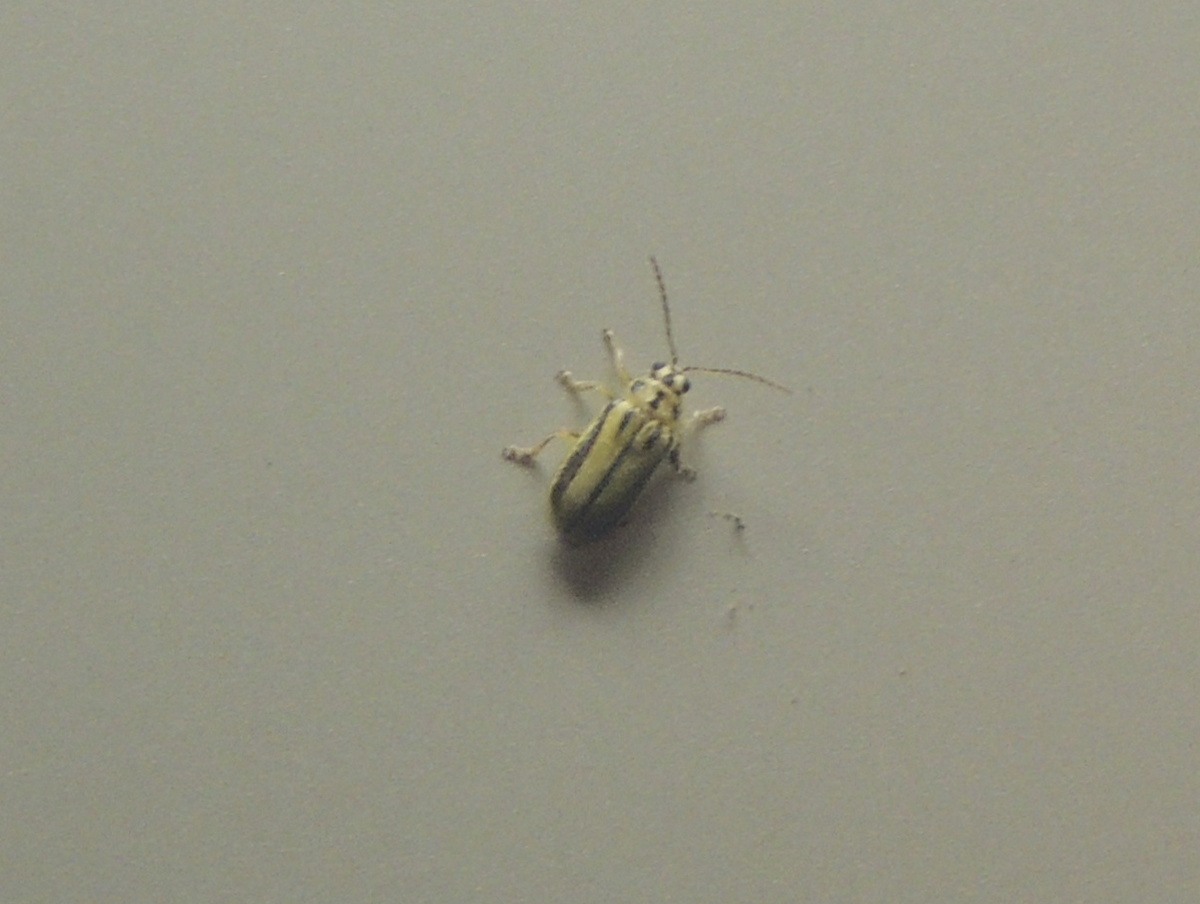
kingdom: Animalia
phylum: Arthropoda
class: Insecta
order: Coleoptera
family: Chrysomelidae
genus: Xanthogaleruca
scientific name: Xanthogaleruca luteola
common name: Elm leaf beetle
